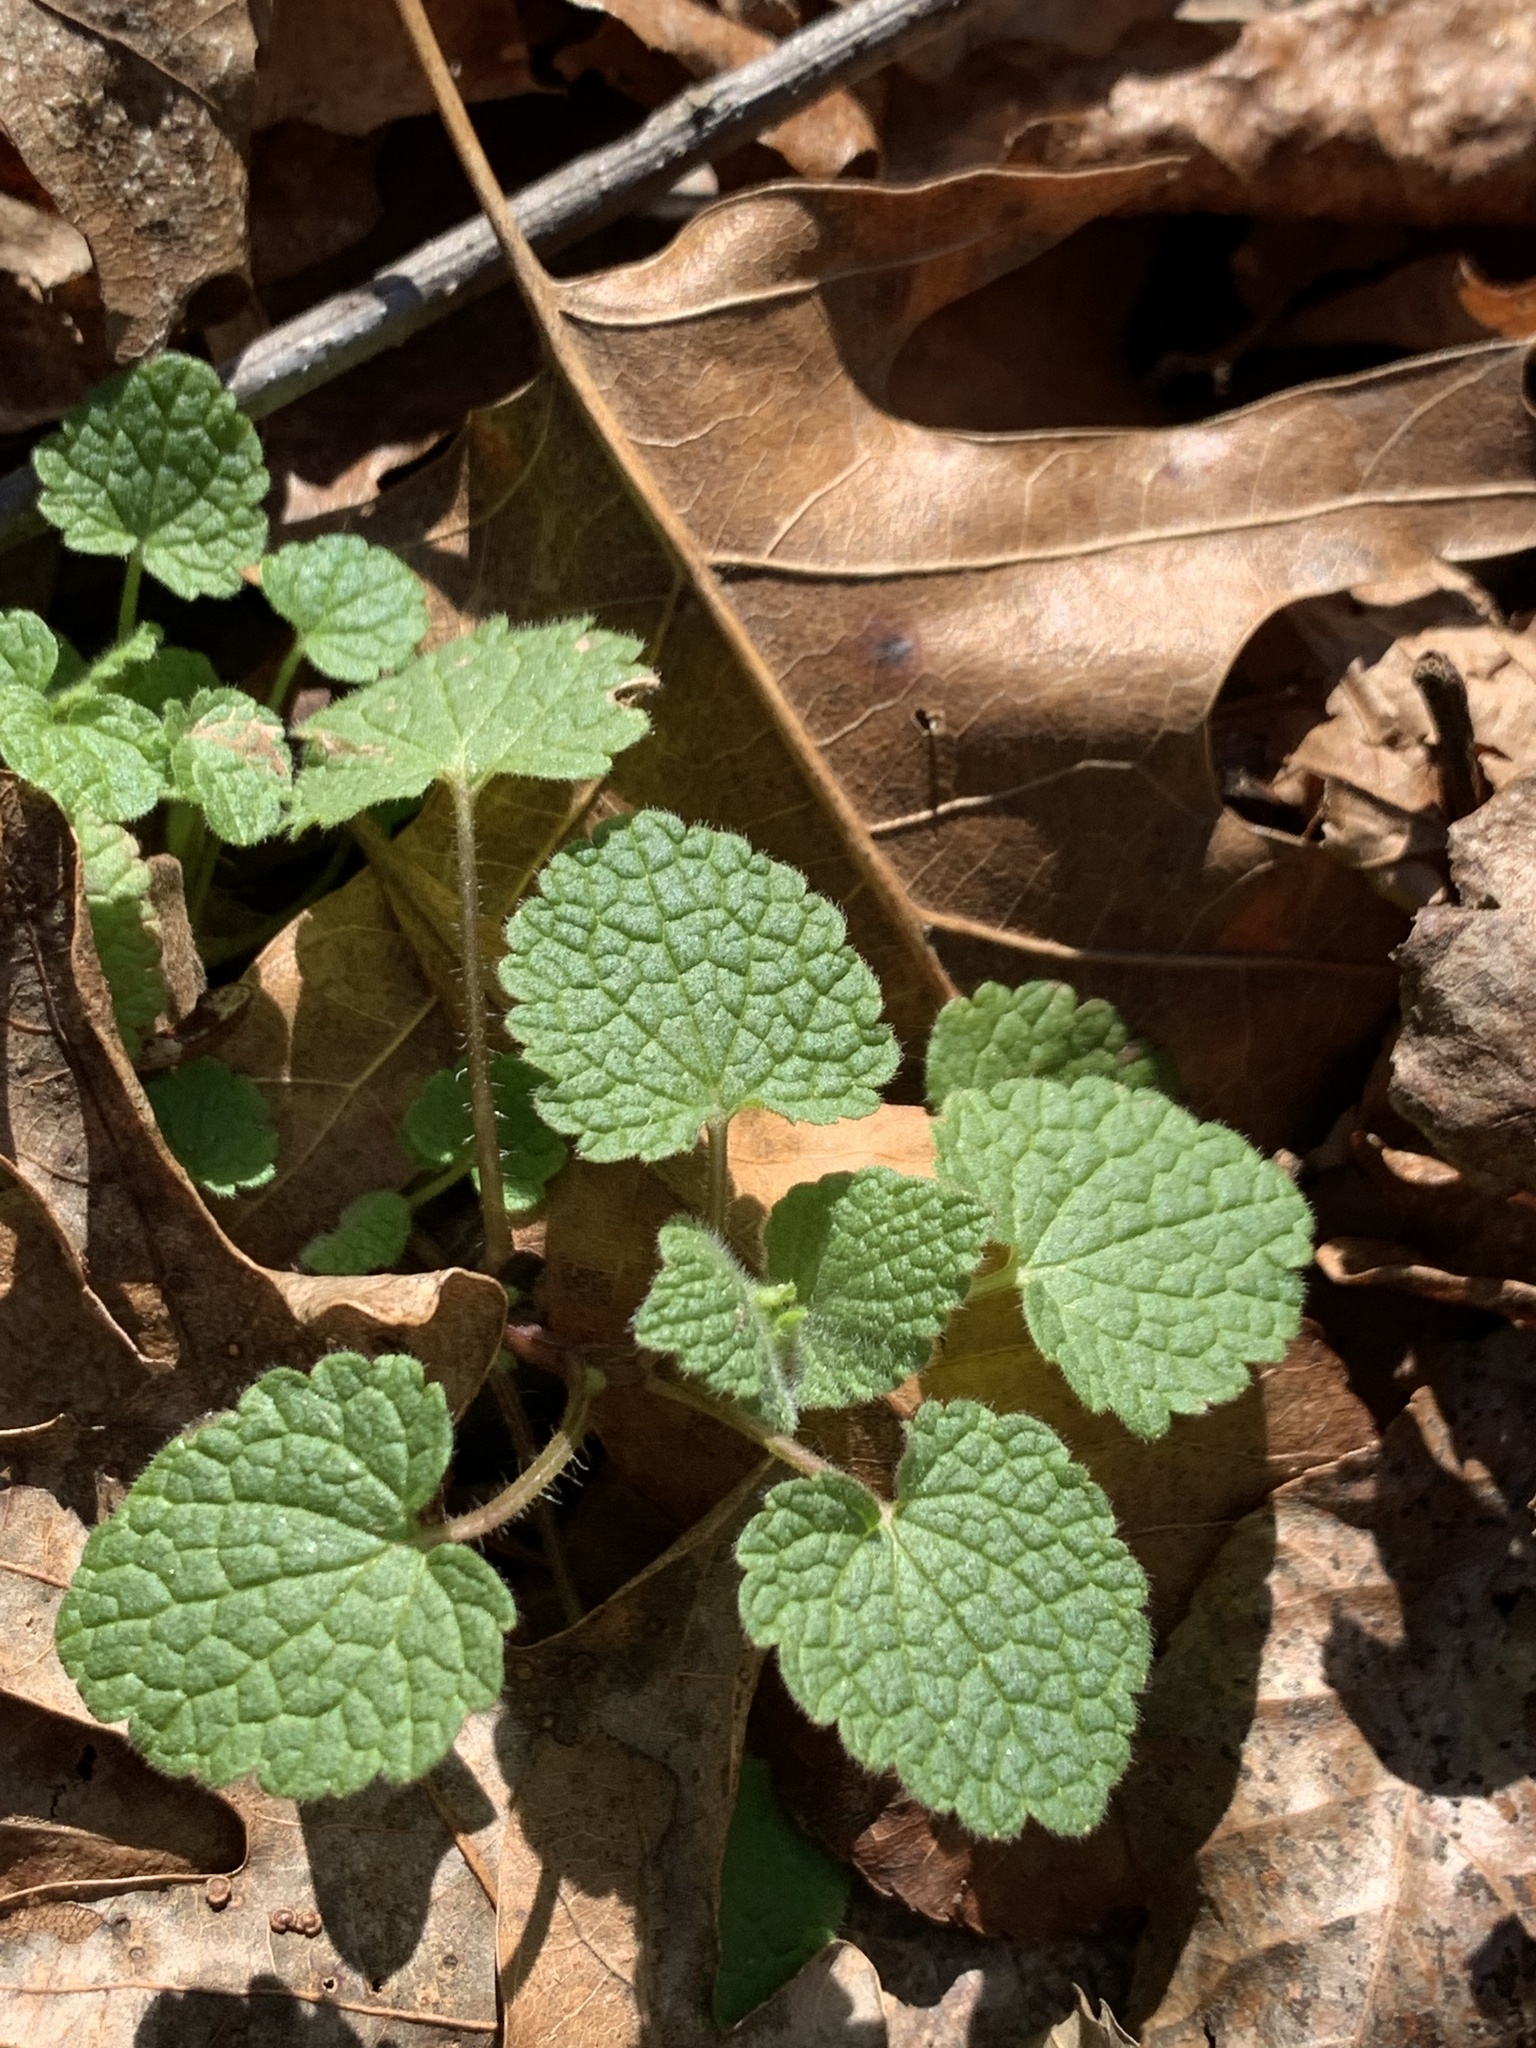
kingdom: Plantae
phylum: Tracheophyta
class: Magnoliopsida
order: Brassicales
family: Brassicaceae
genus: Alliaria
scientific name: Alliaria petiolata
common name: Garlic mustard
